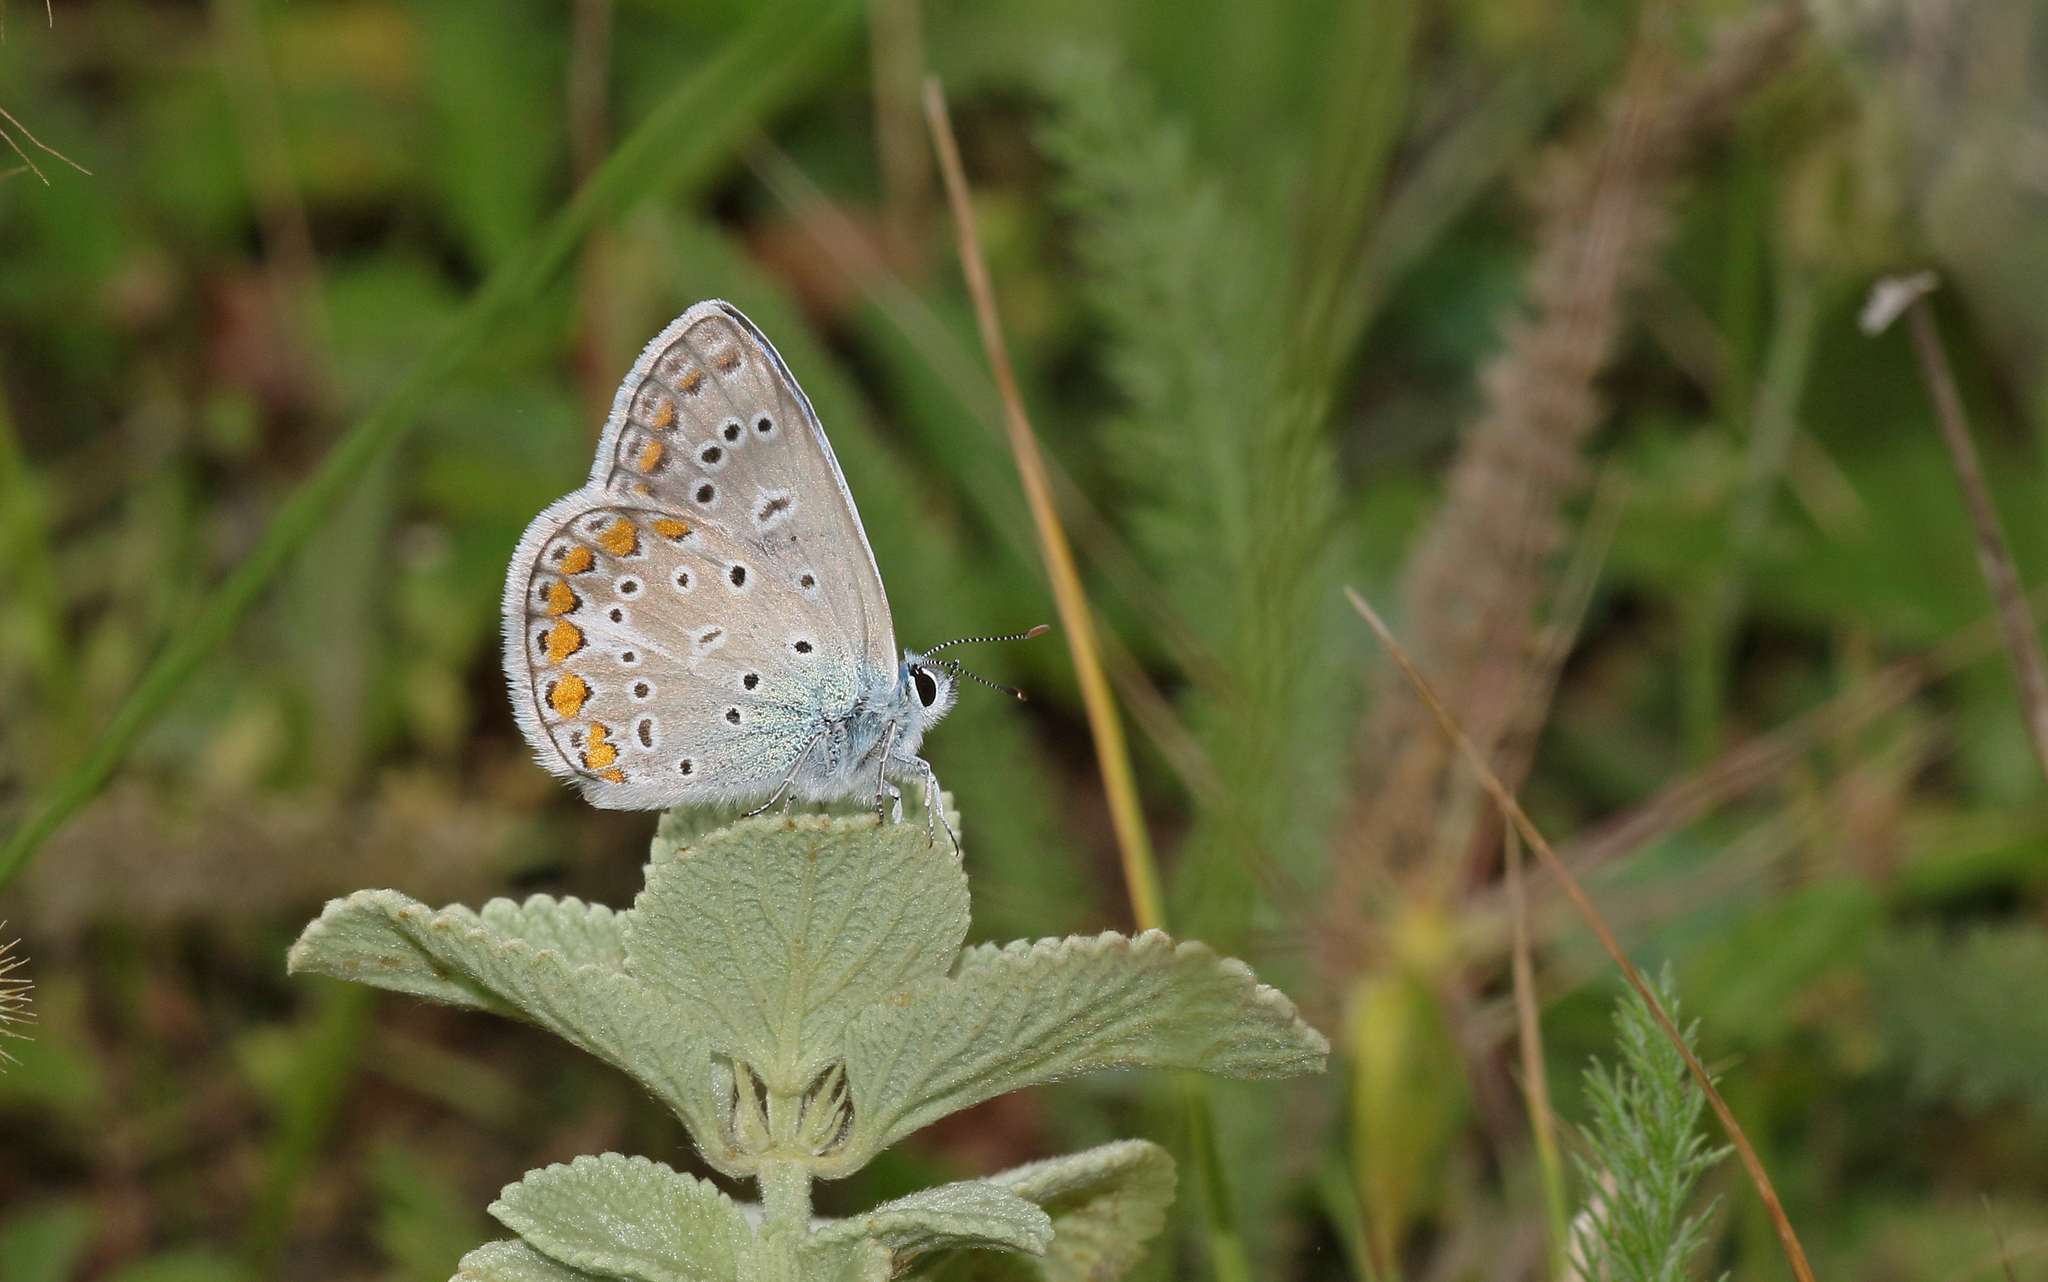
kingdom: Animalia
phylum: Arthropoda
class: Insecta
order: Lepidoptera
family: Lycaenidae
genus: Polyommatus
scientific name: Polyommatus icarus
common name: Common blue
